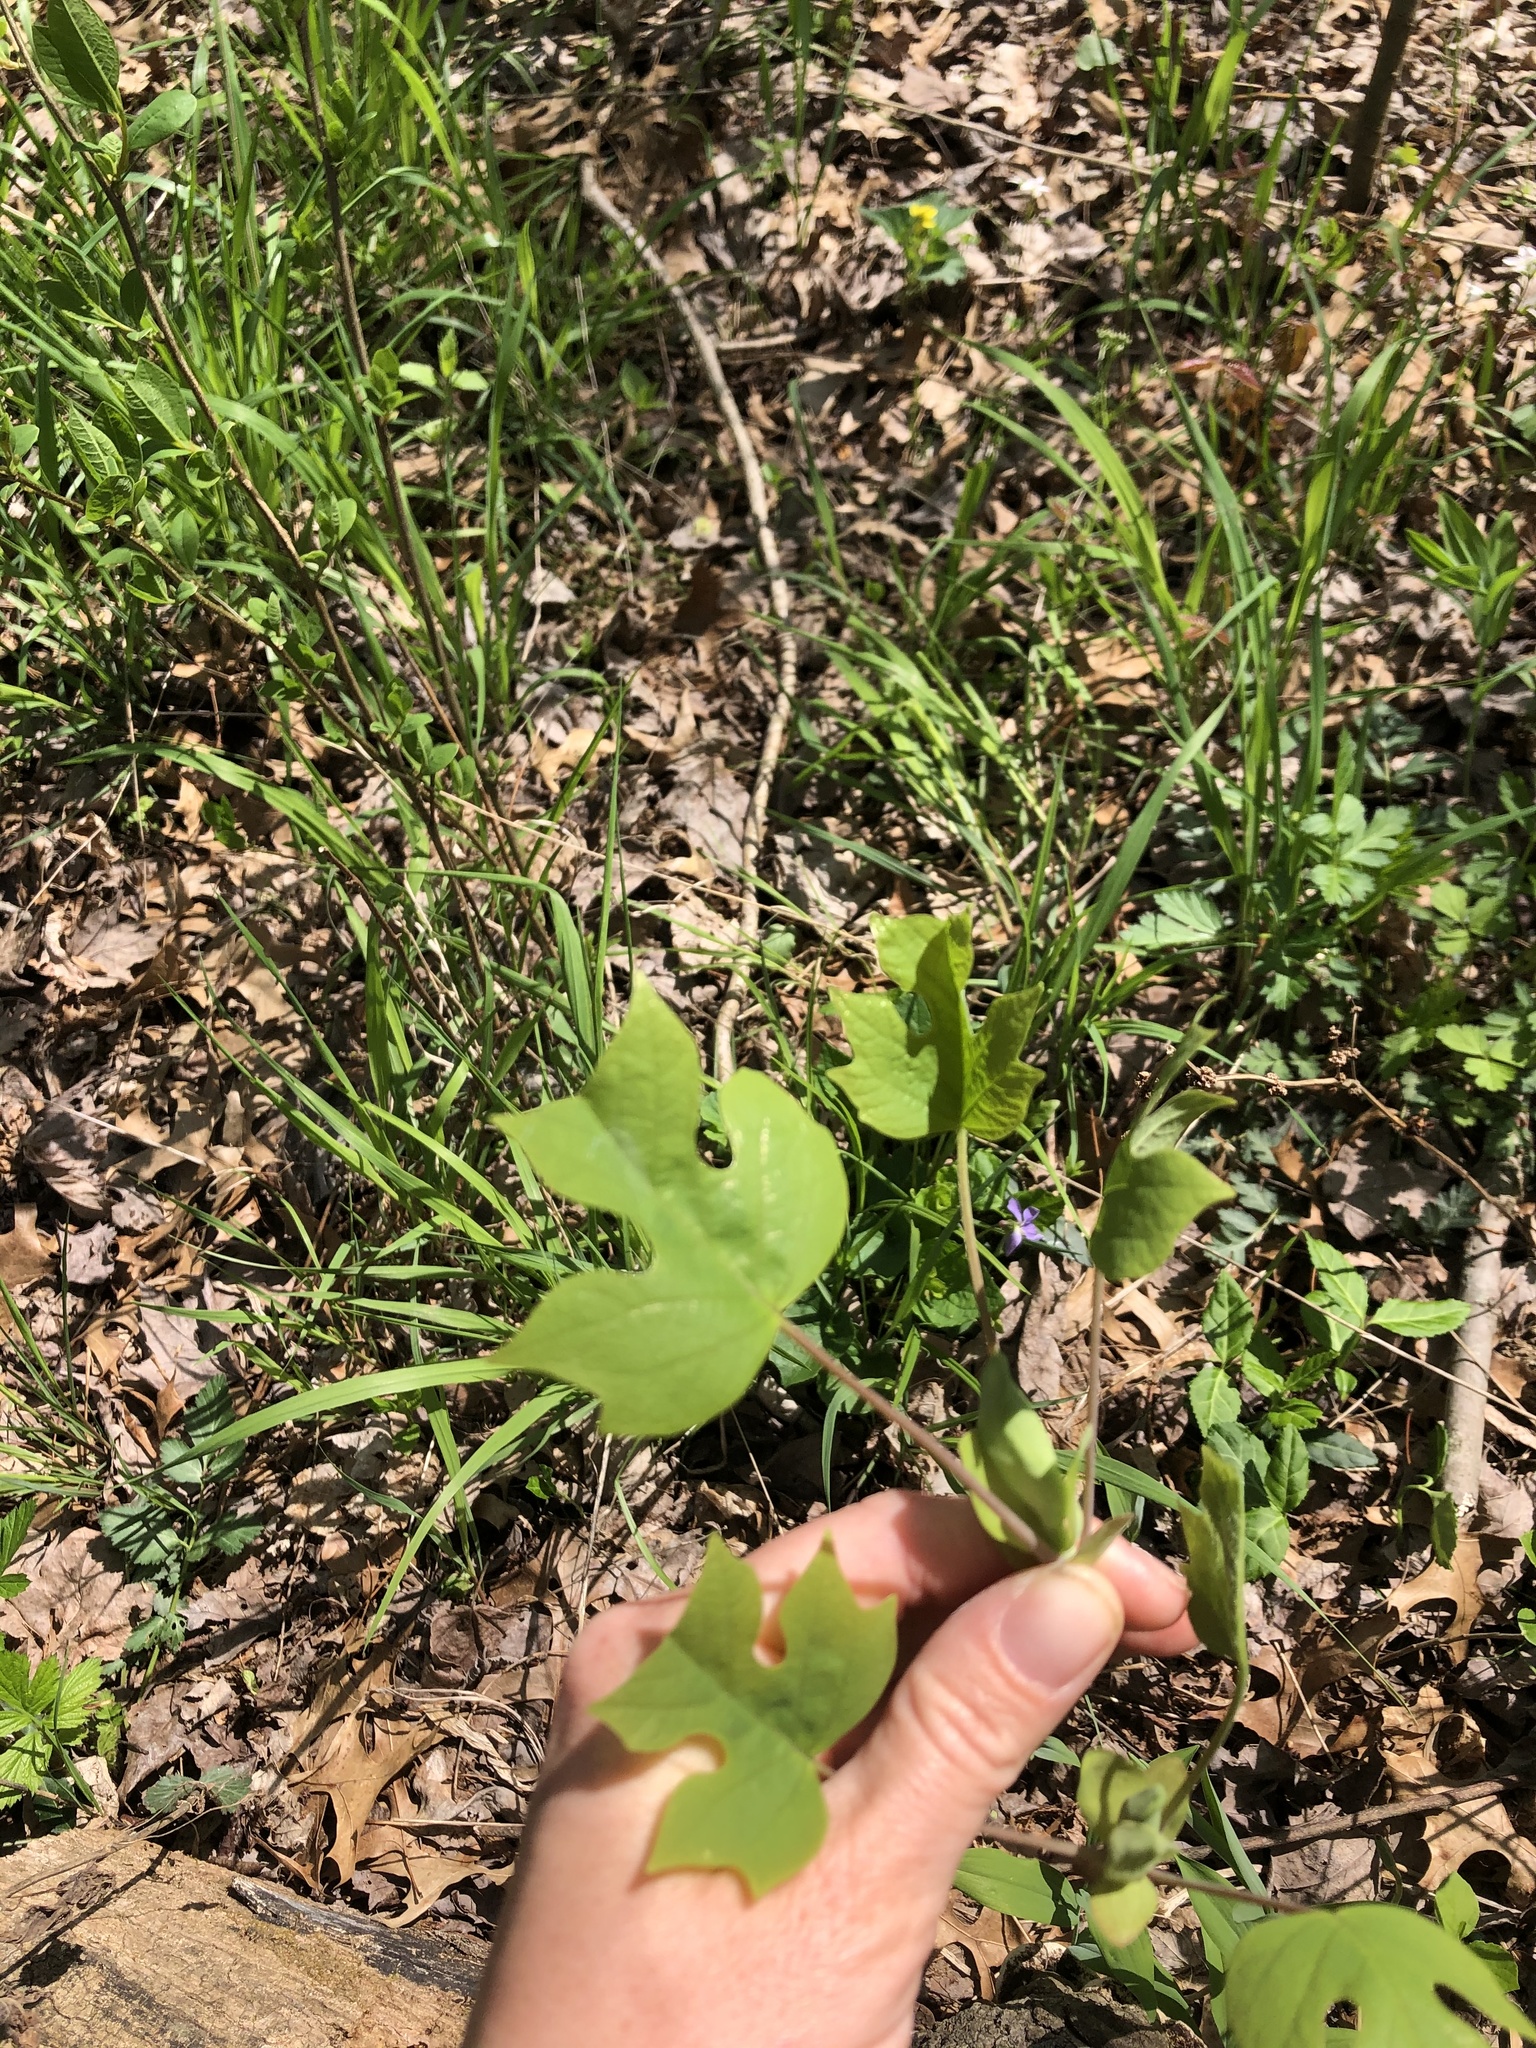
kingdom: Plantae
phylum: Tracheophyta
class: Magnoliopsida
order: Magnoliales
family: Magnoliaceae
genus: Liriodendron
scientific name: Liriodendron tulipifera
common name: Tulip tree
